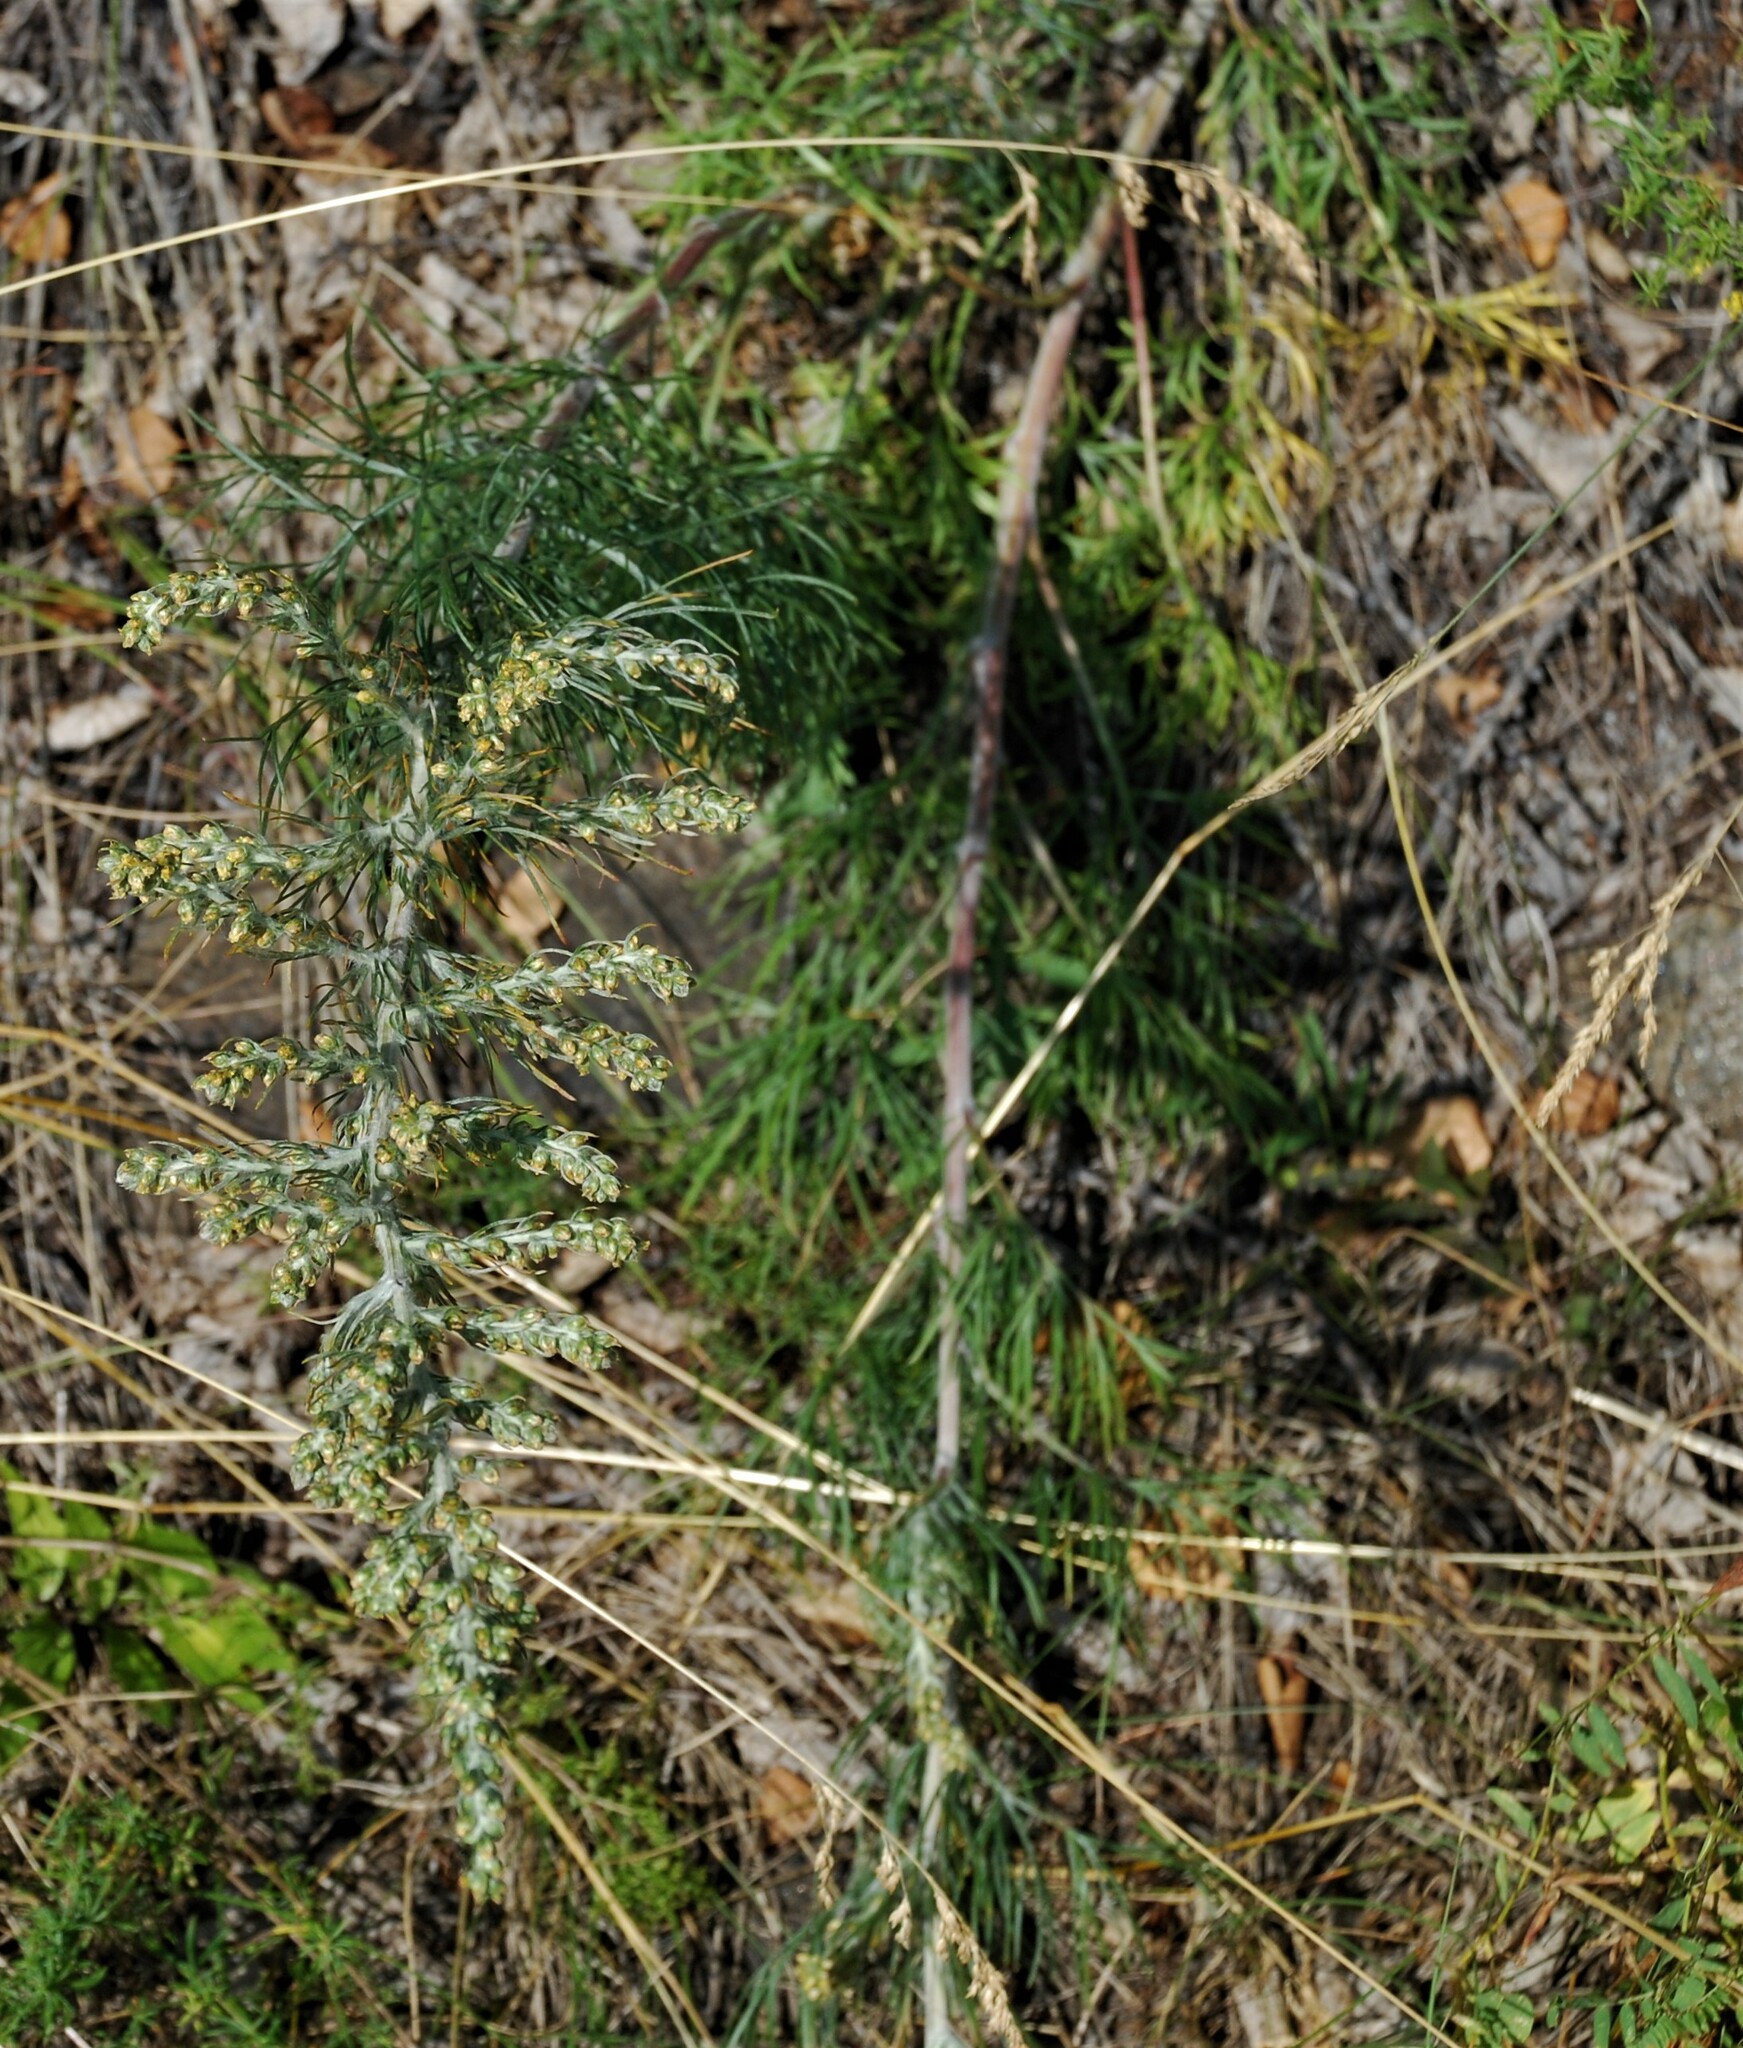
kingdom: Plantae
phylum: Tracheophyta
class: Magnoliopsida
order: Asterales
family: Asteraceae
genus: Artemisia
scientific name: Artemisia pubescens
